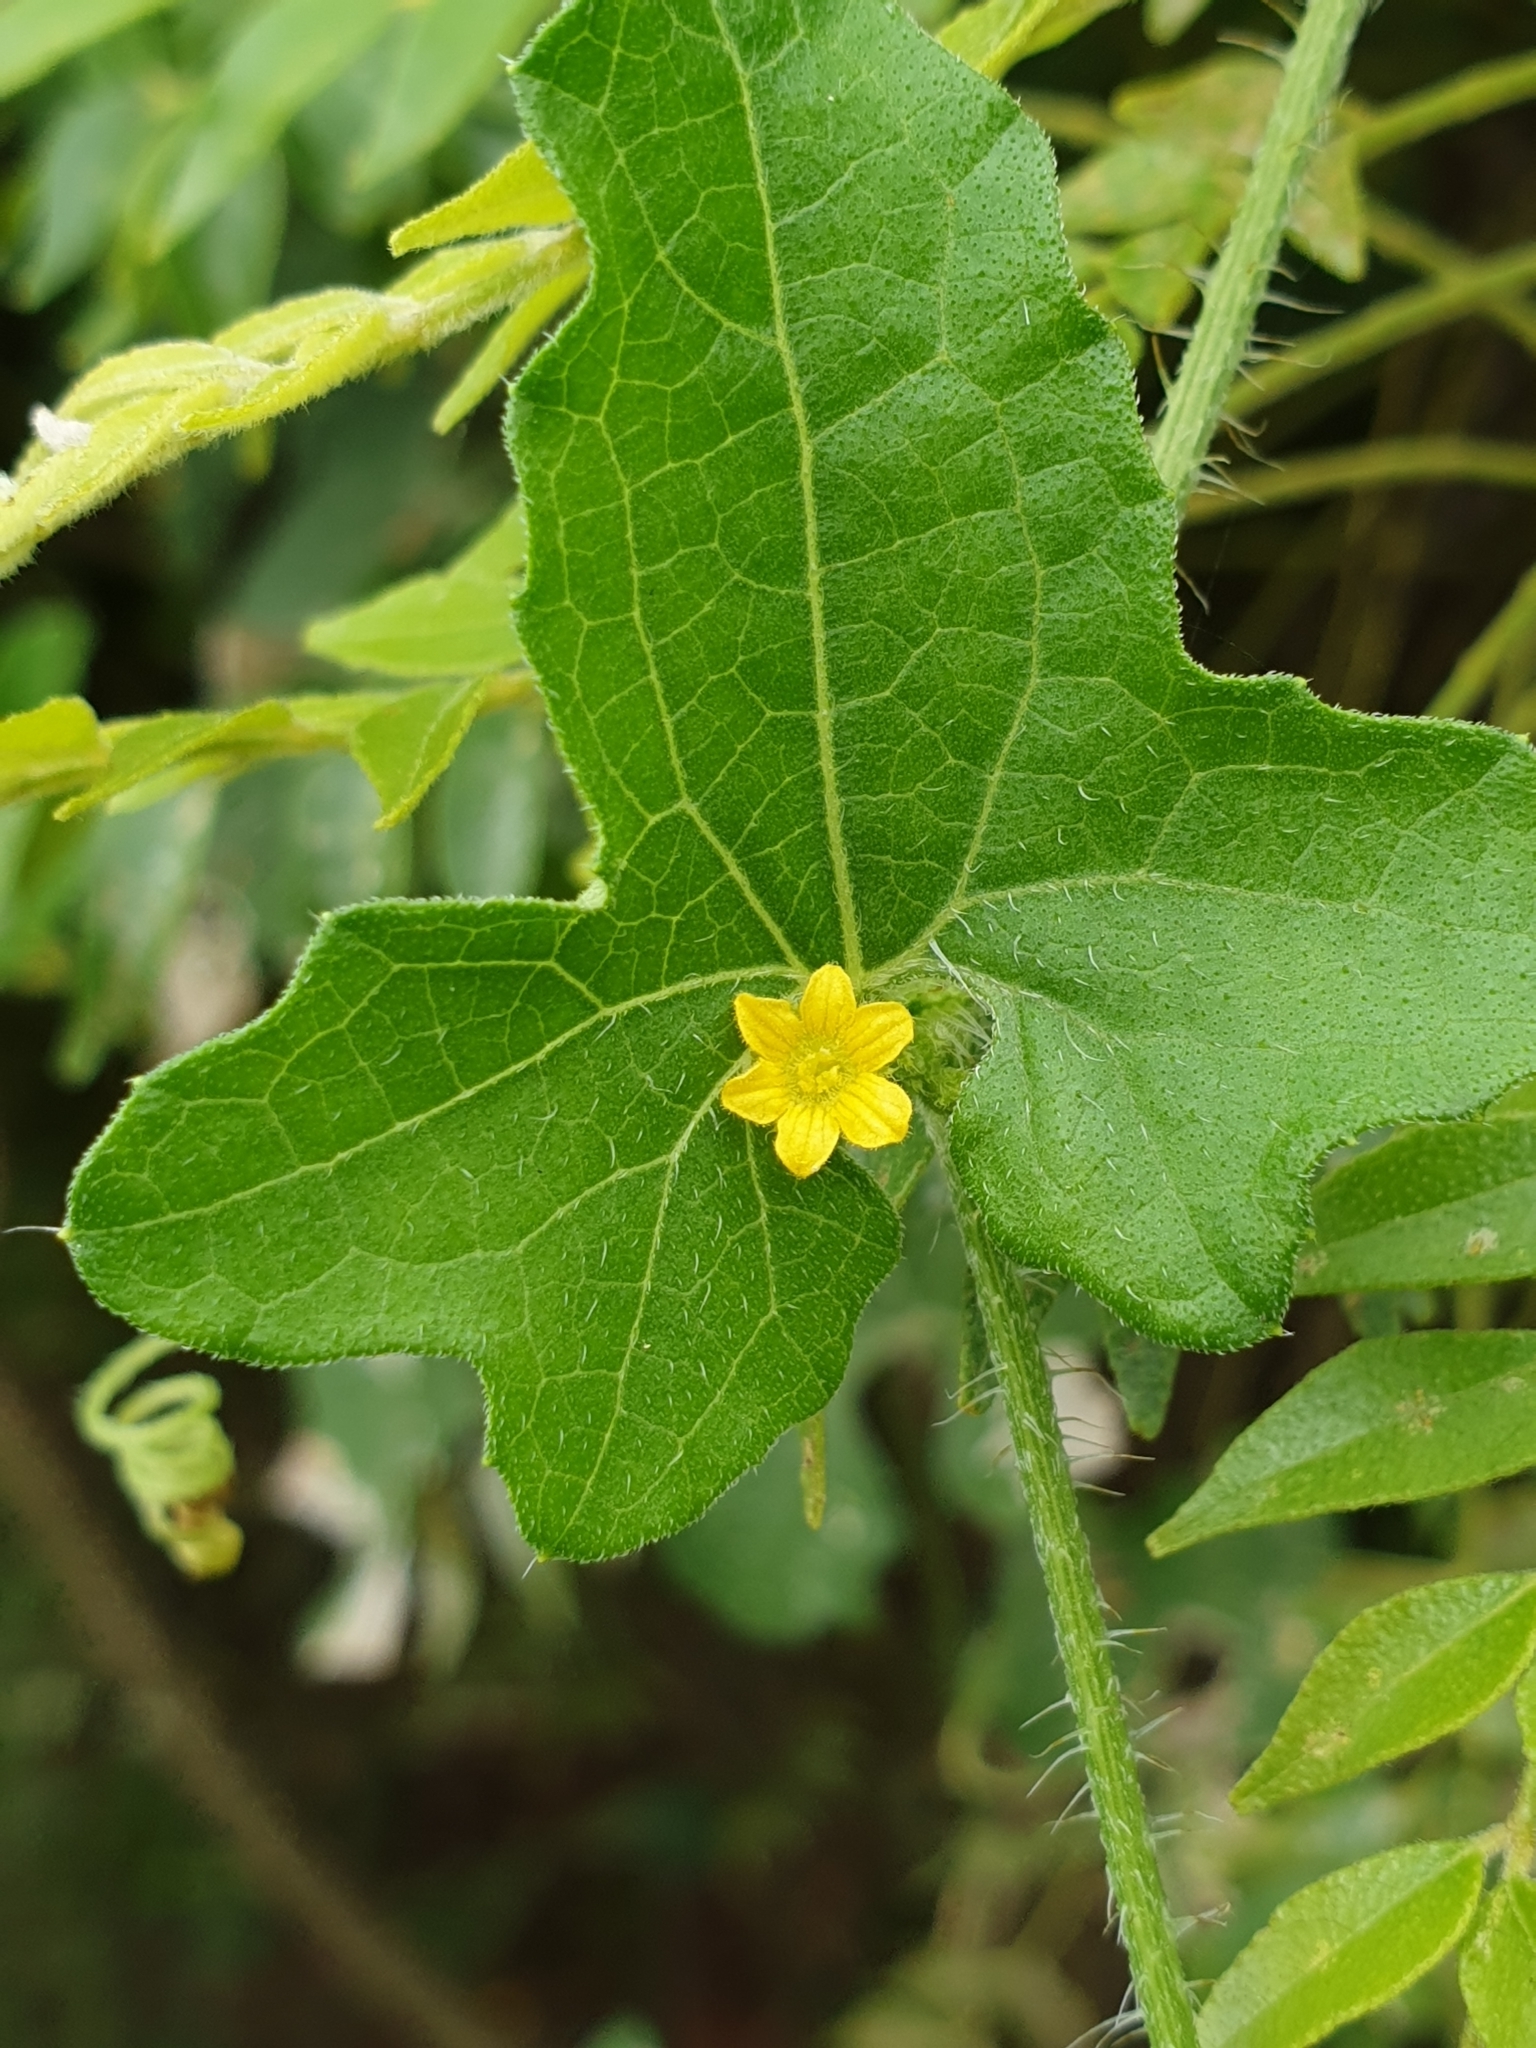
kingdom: Plantae
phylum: Tracheophyta
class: Magnoliopsida
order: Cucurbitales
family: Cucurbitaceae
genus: Cucumis
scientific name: Cucumis maderaspatanus
